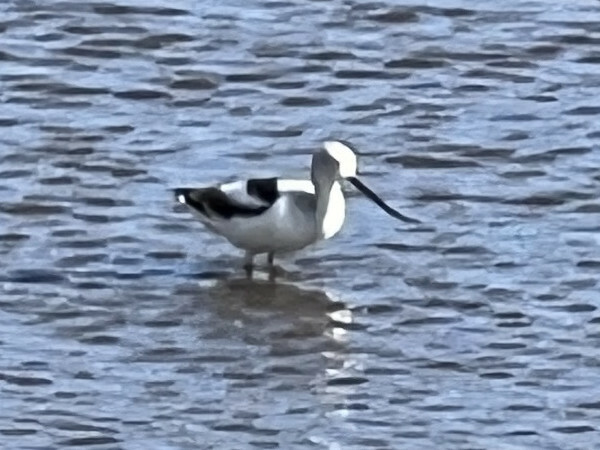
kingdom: Animalia
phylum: Chordata
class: Aves
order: Charadriiformes
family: Recurvirostridae
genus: Recurvirostra
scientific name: Recurvirostra americana
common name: American avocet
